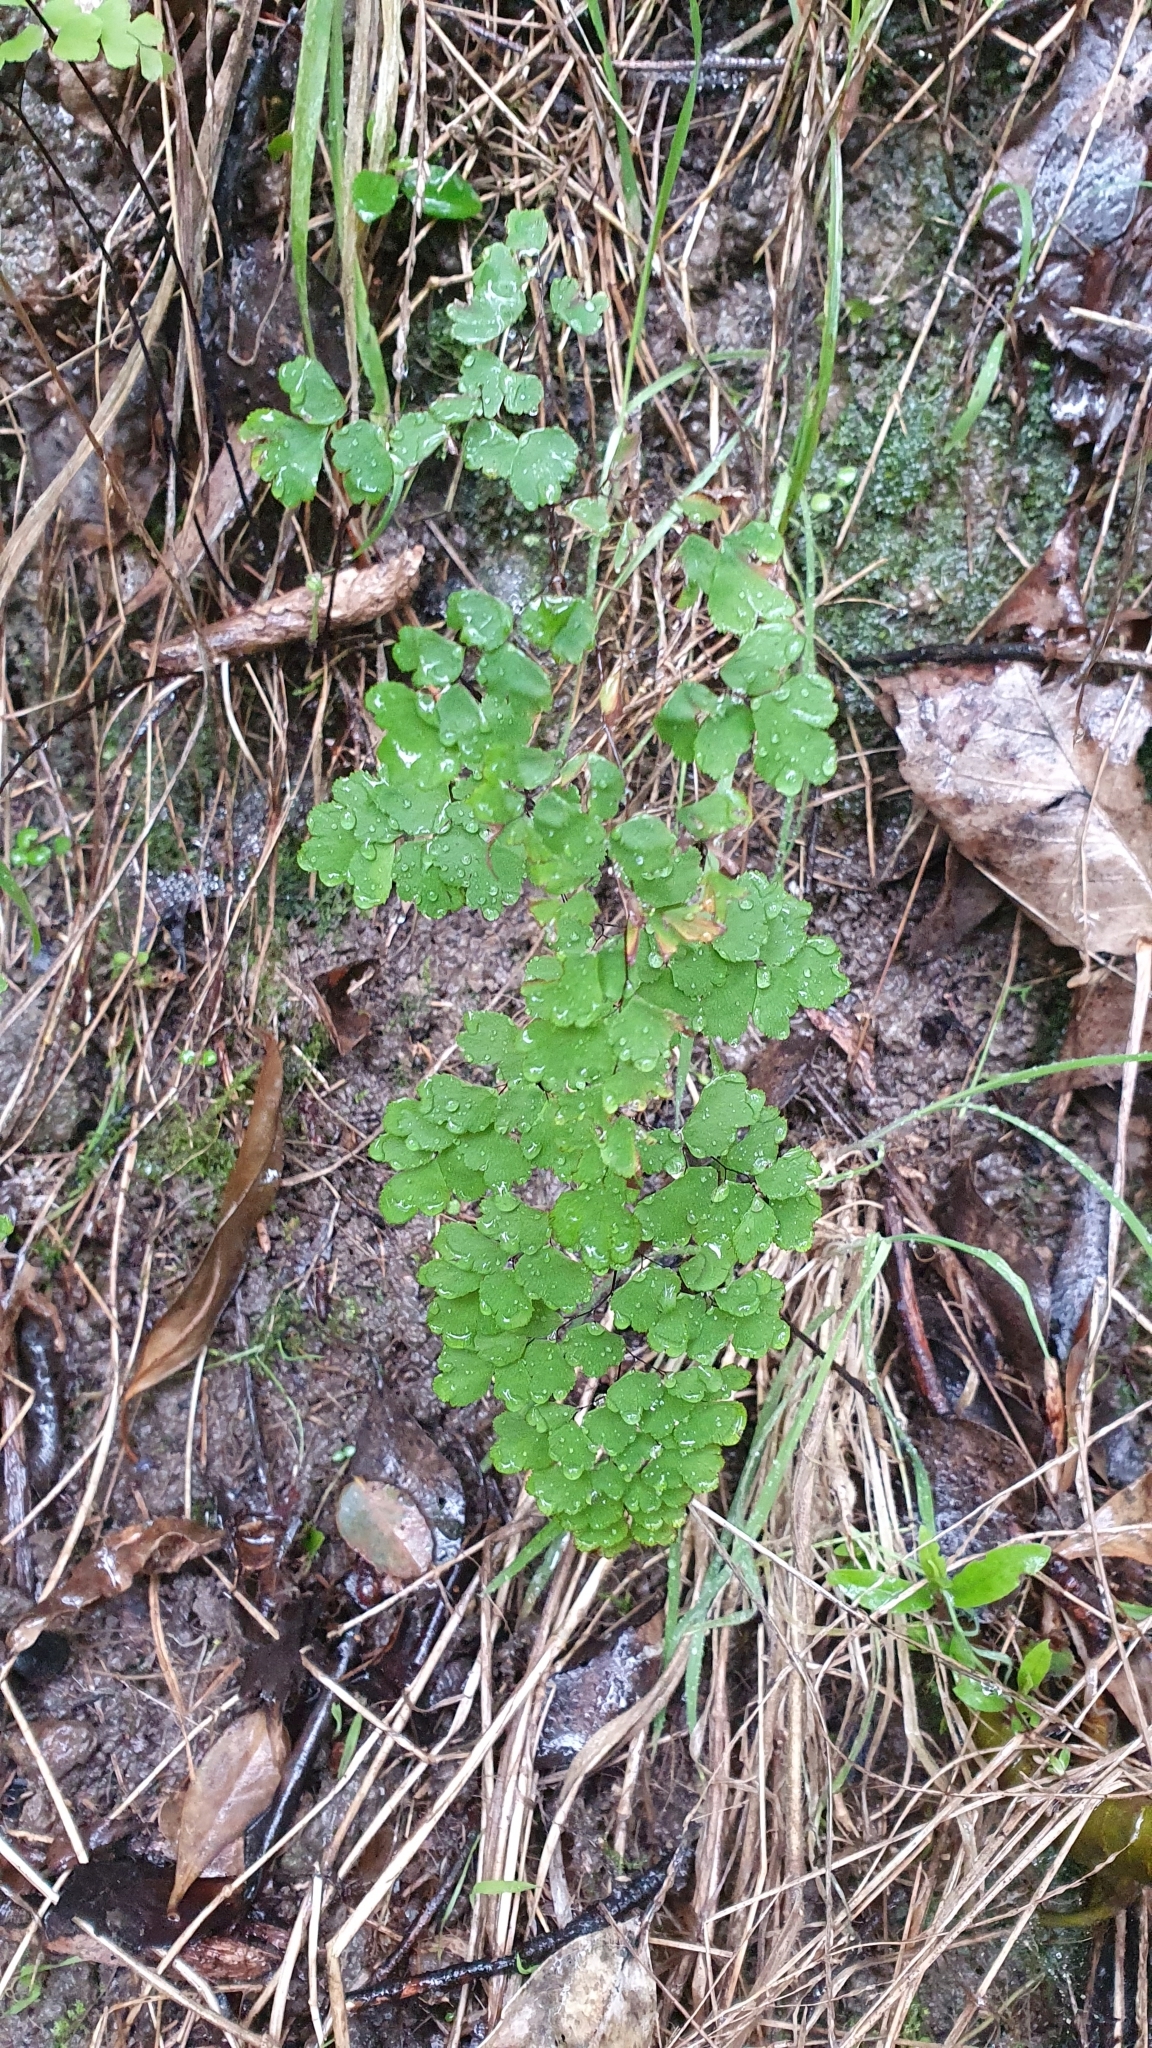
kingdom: Plantae
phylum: Tracheophyta
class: Polypodiopsida
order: Polypodiales
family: Pteridaceae
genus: Adiantum
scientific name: Adiantum raddianum
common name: Delta maidenhair fern
